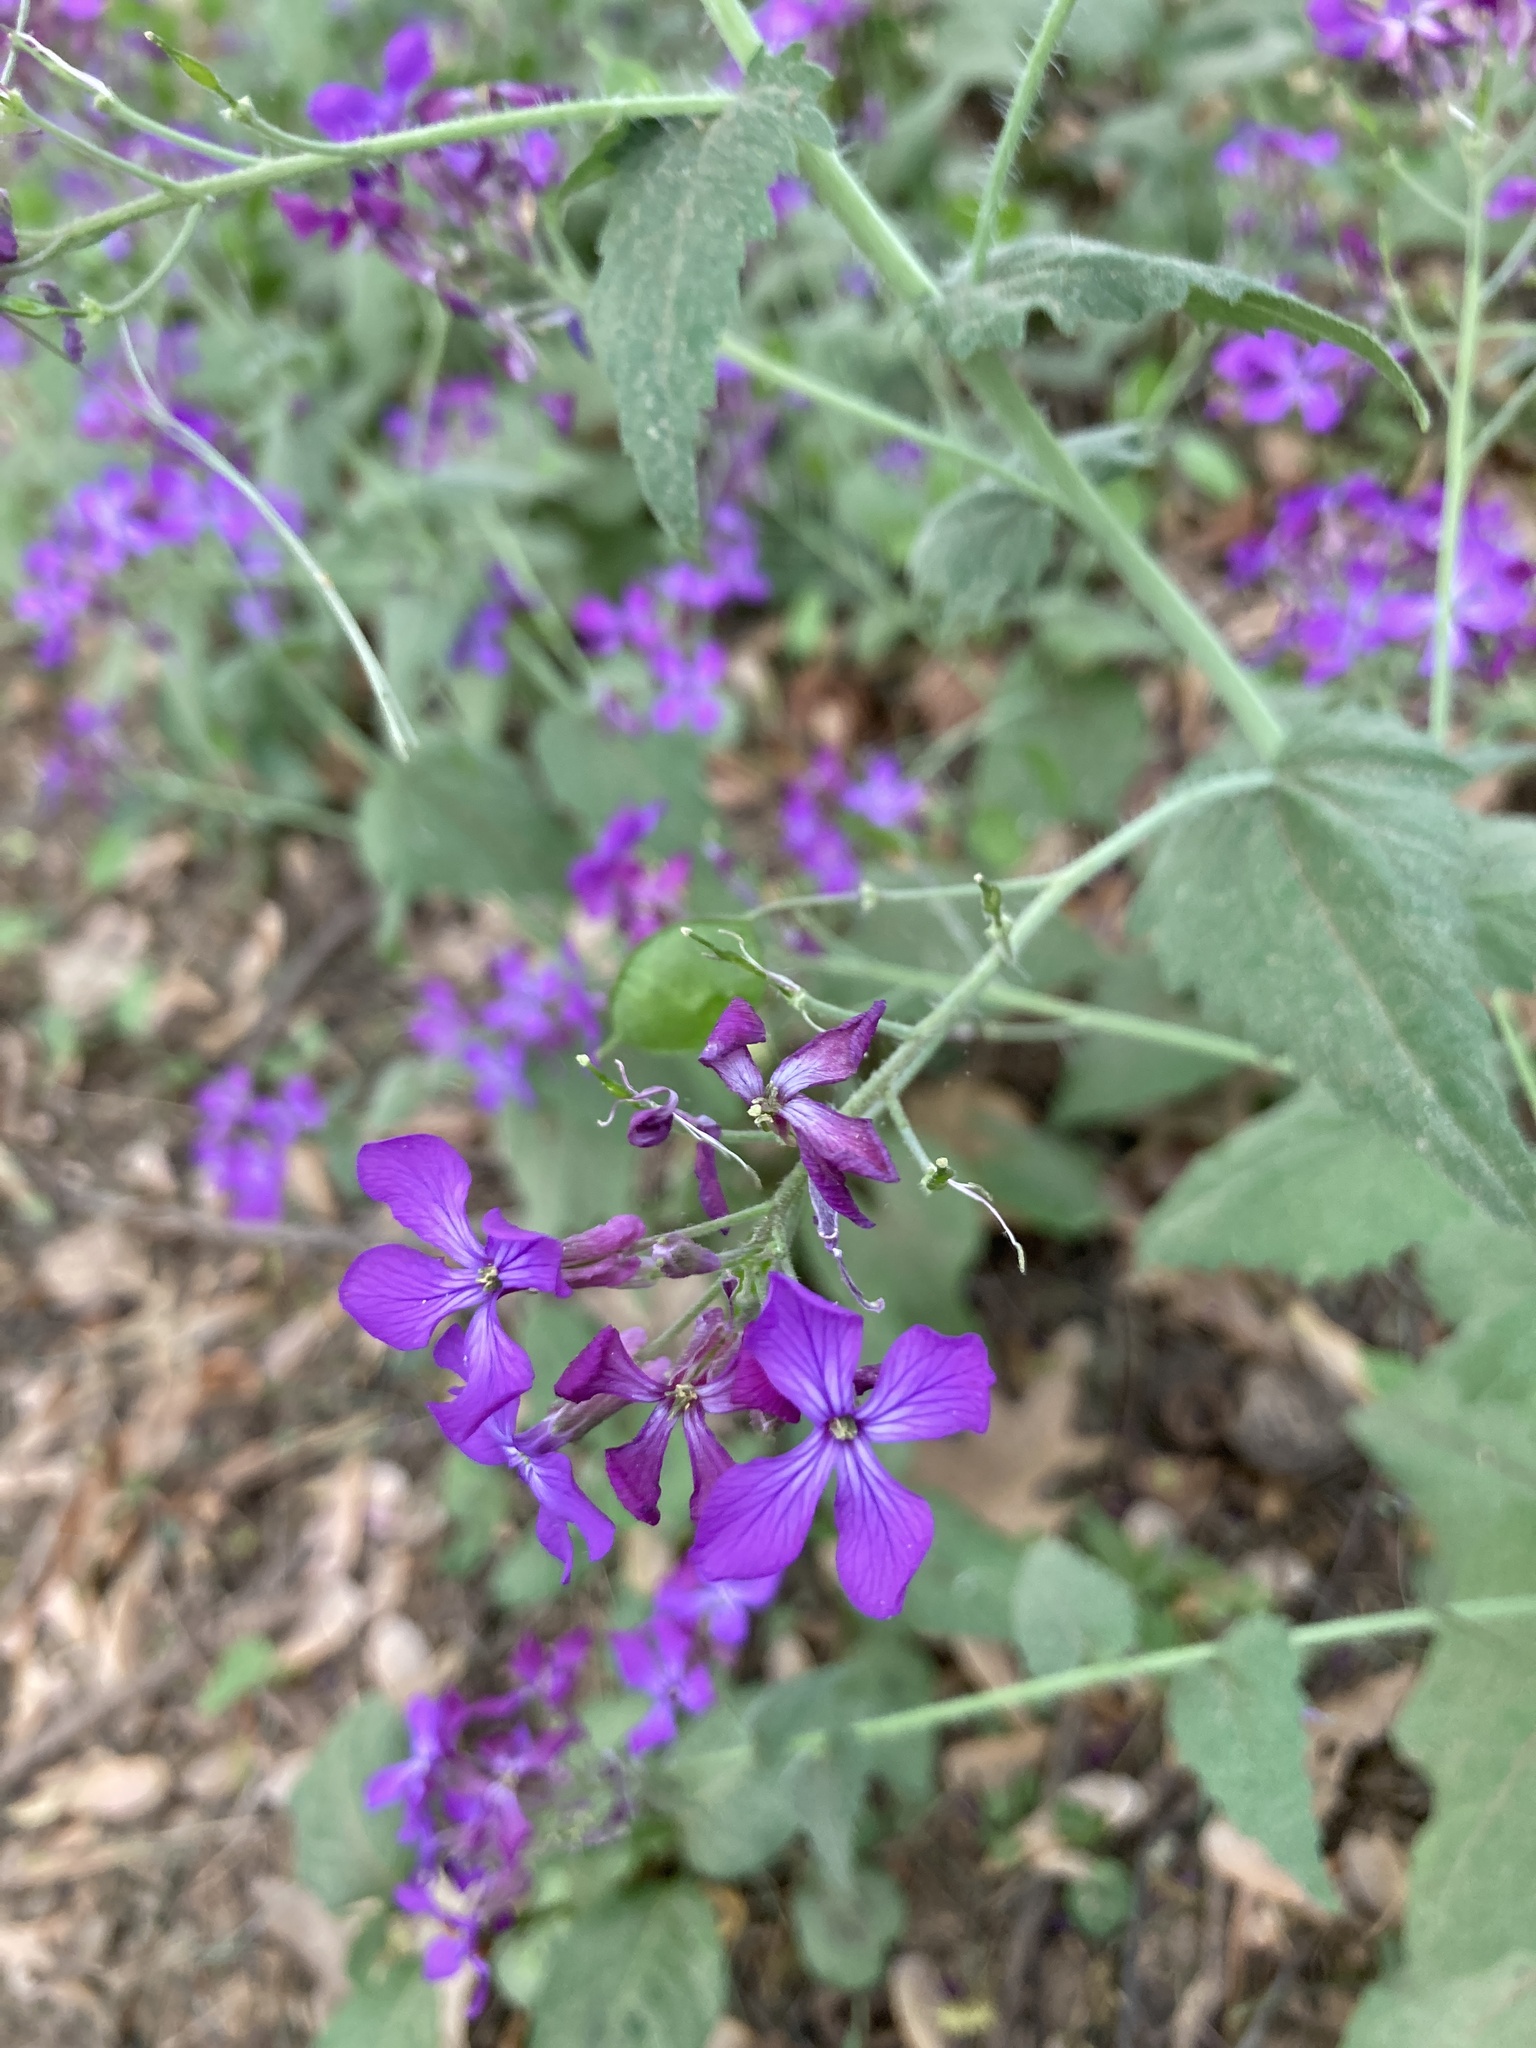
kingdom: Plantae
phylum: Tracheophyta
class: Magnoliopsida
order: Brassicales
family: Brassicaceae
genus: Lunaria
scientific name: Lunaria annua
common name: Honesty
